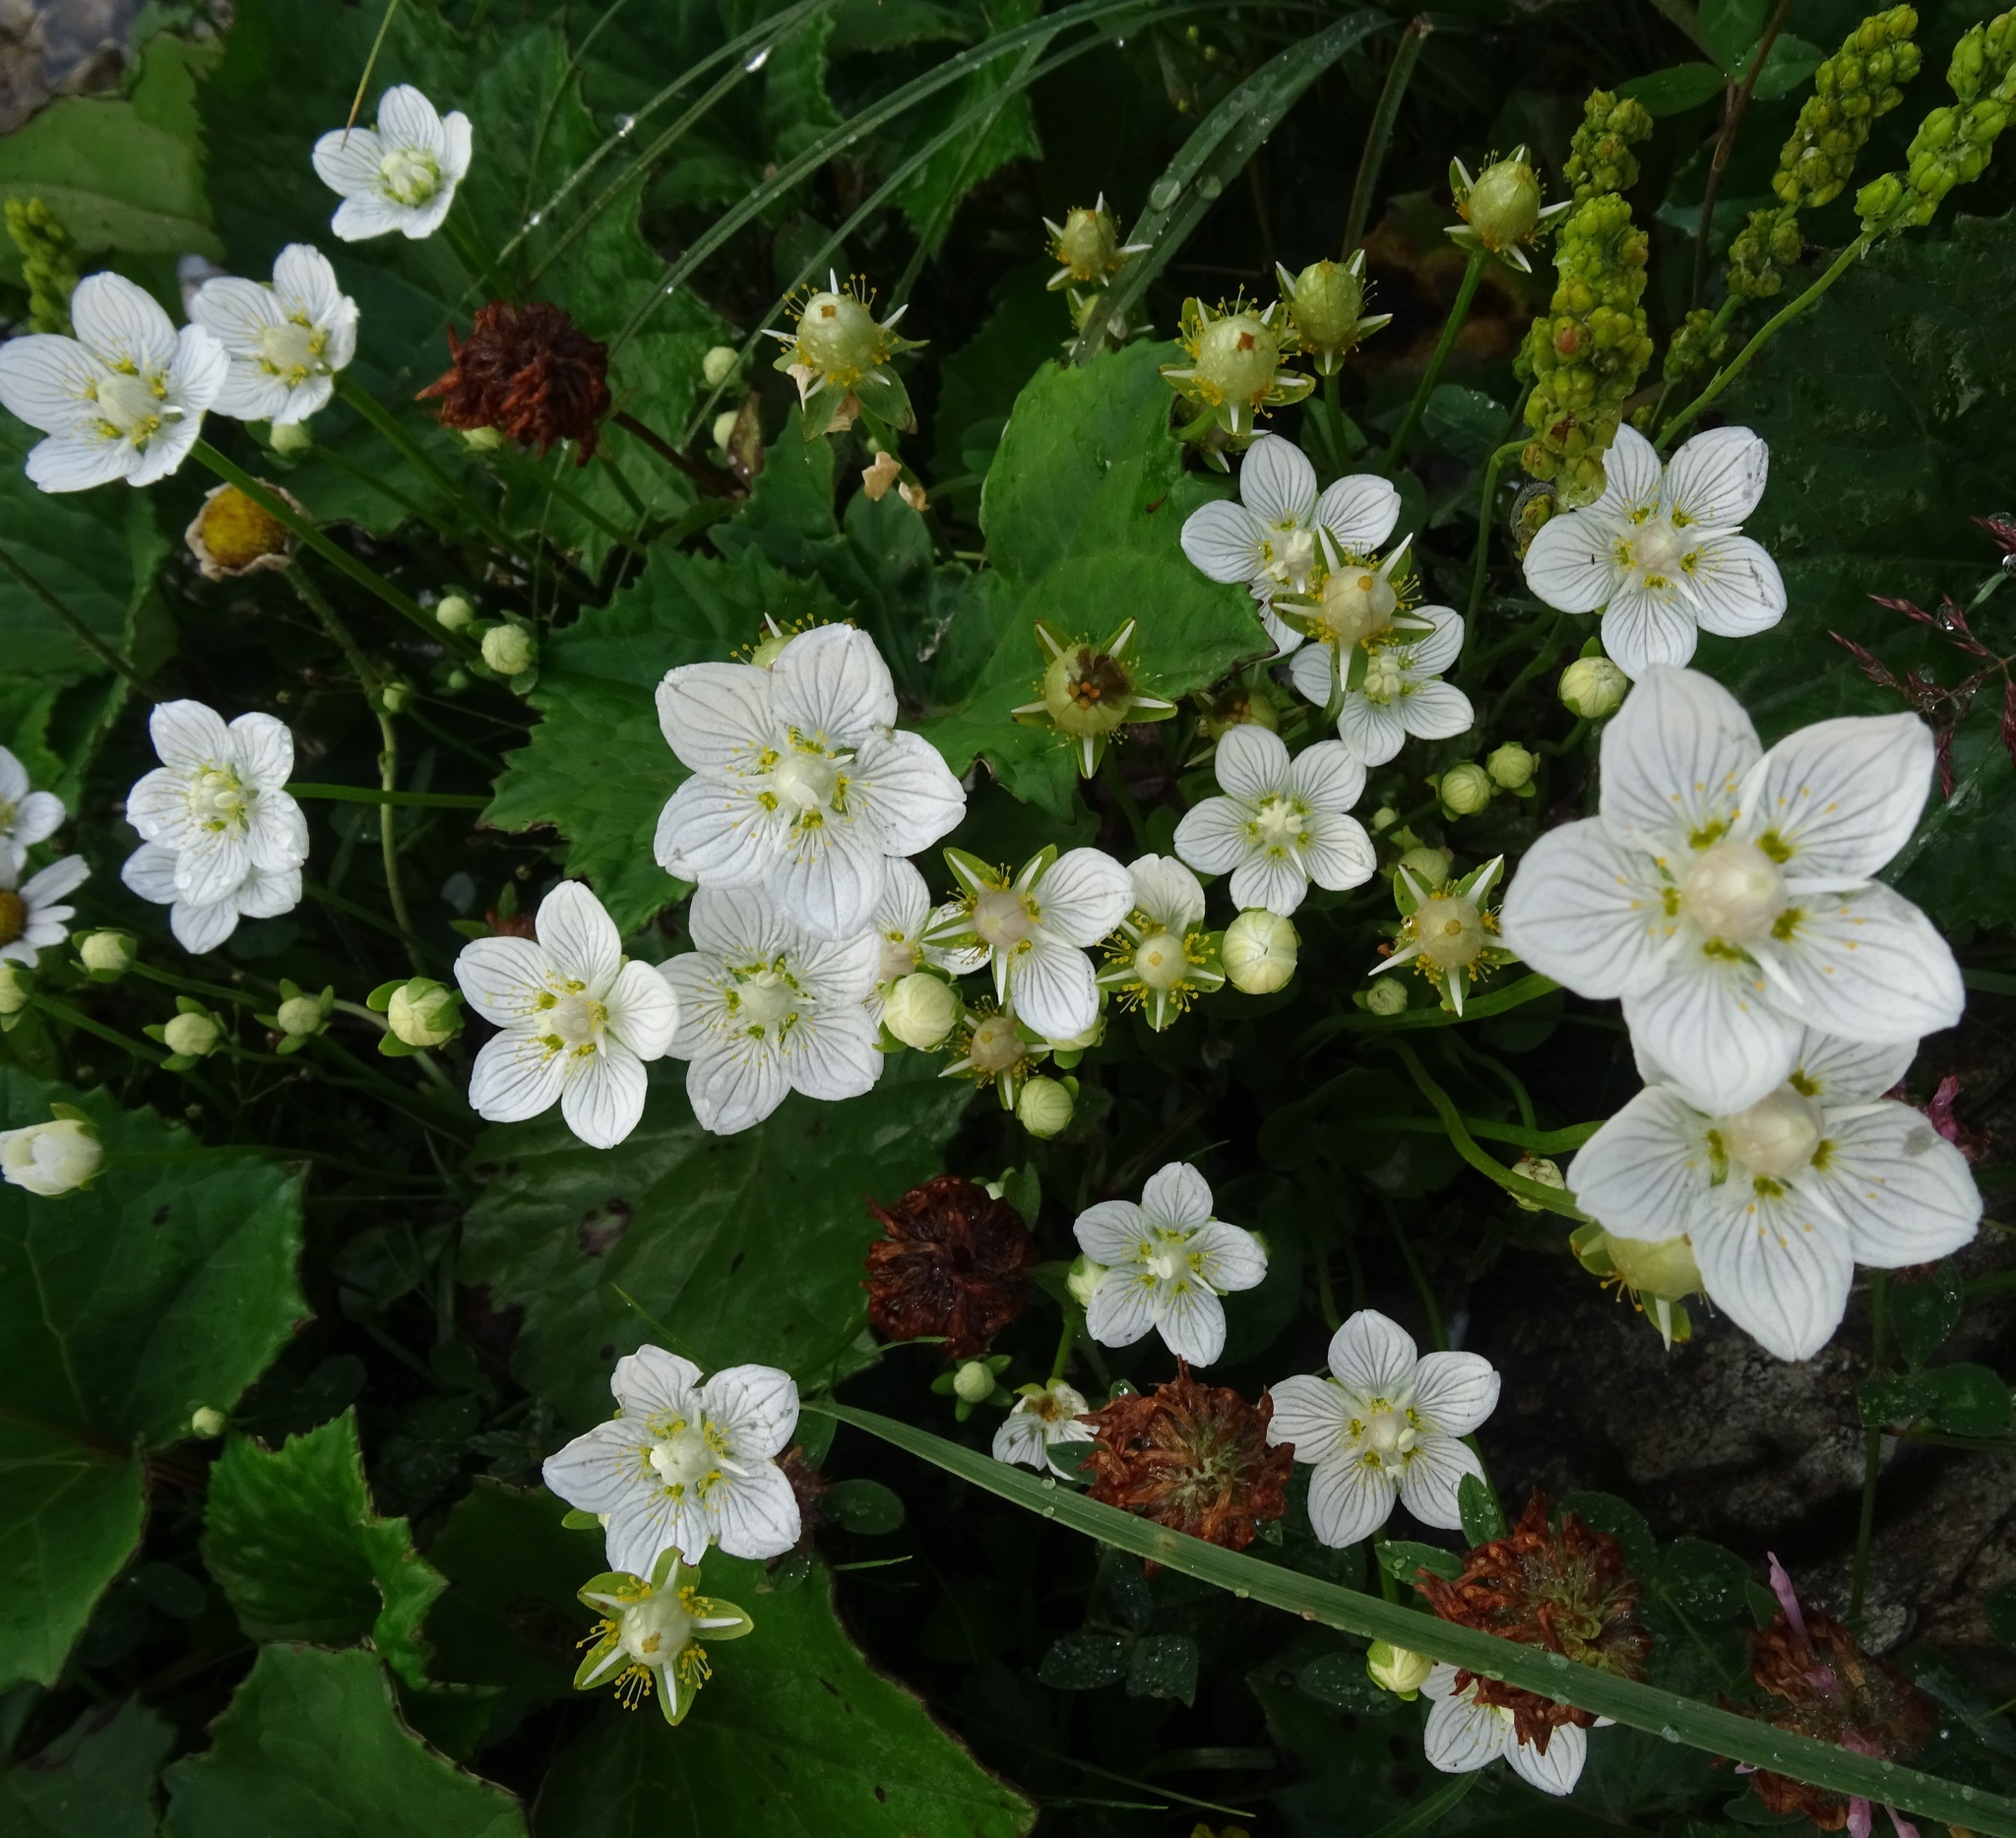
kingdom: Plantae
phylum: Tracheophyta
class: Magnoliopsida
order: Celastrales
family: Parnassiaceae
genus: Parnassia
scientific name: Parnassia palustris
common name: Grass-of-parnassus
